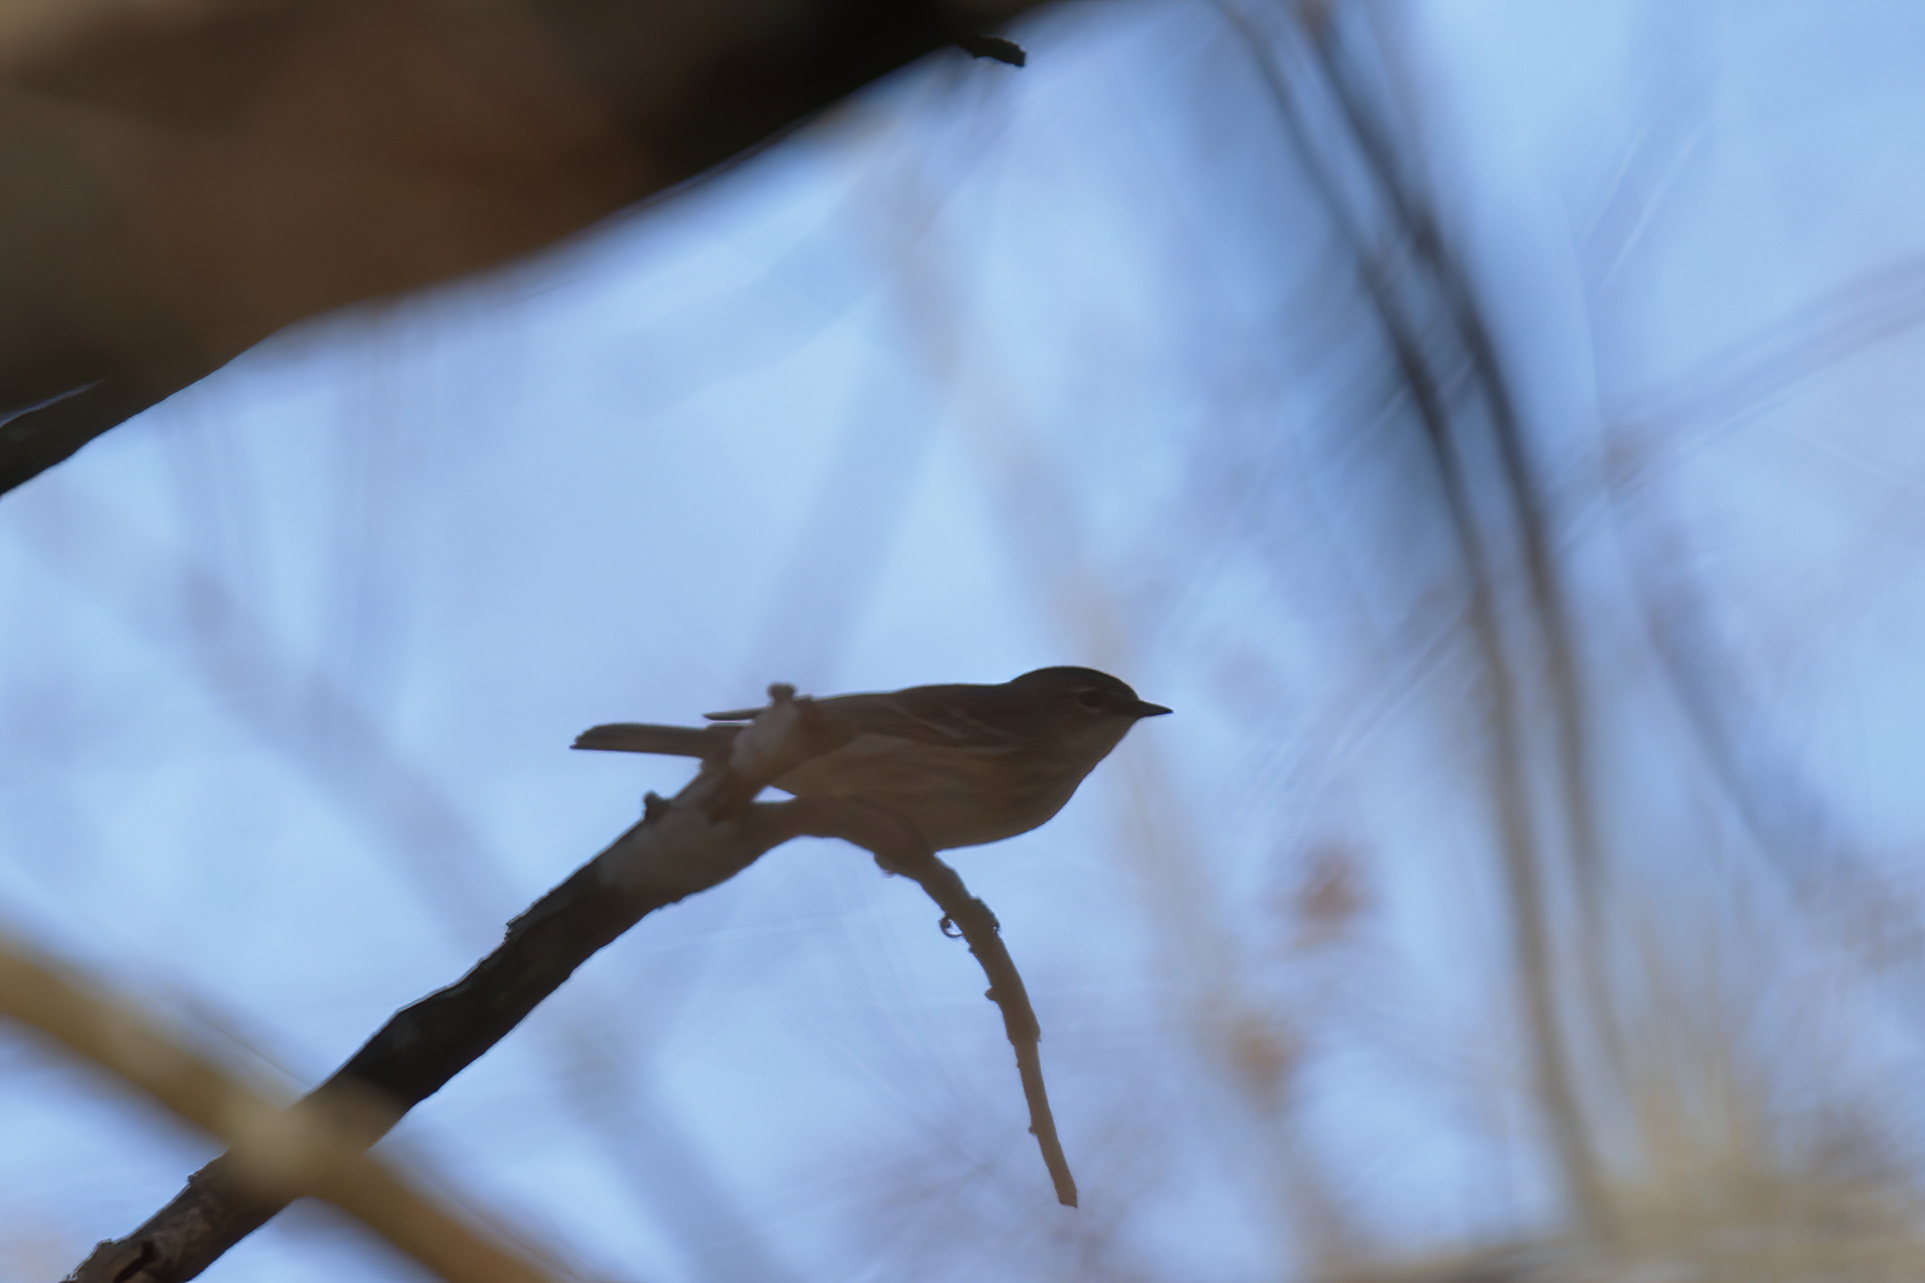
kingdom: Animalia
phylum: Chordata
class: Aves
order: Passeriformes
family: Parulidae
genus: Setophaga
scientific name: Setophaga coronata
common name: Myrtle warbler
